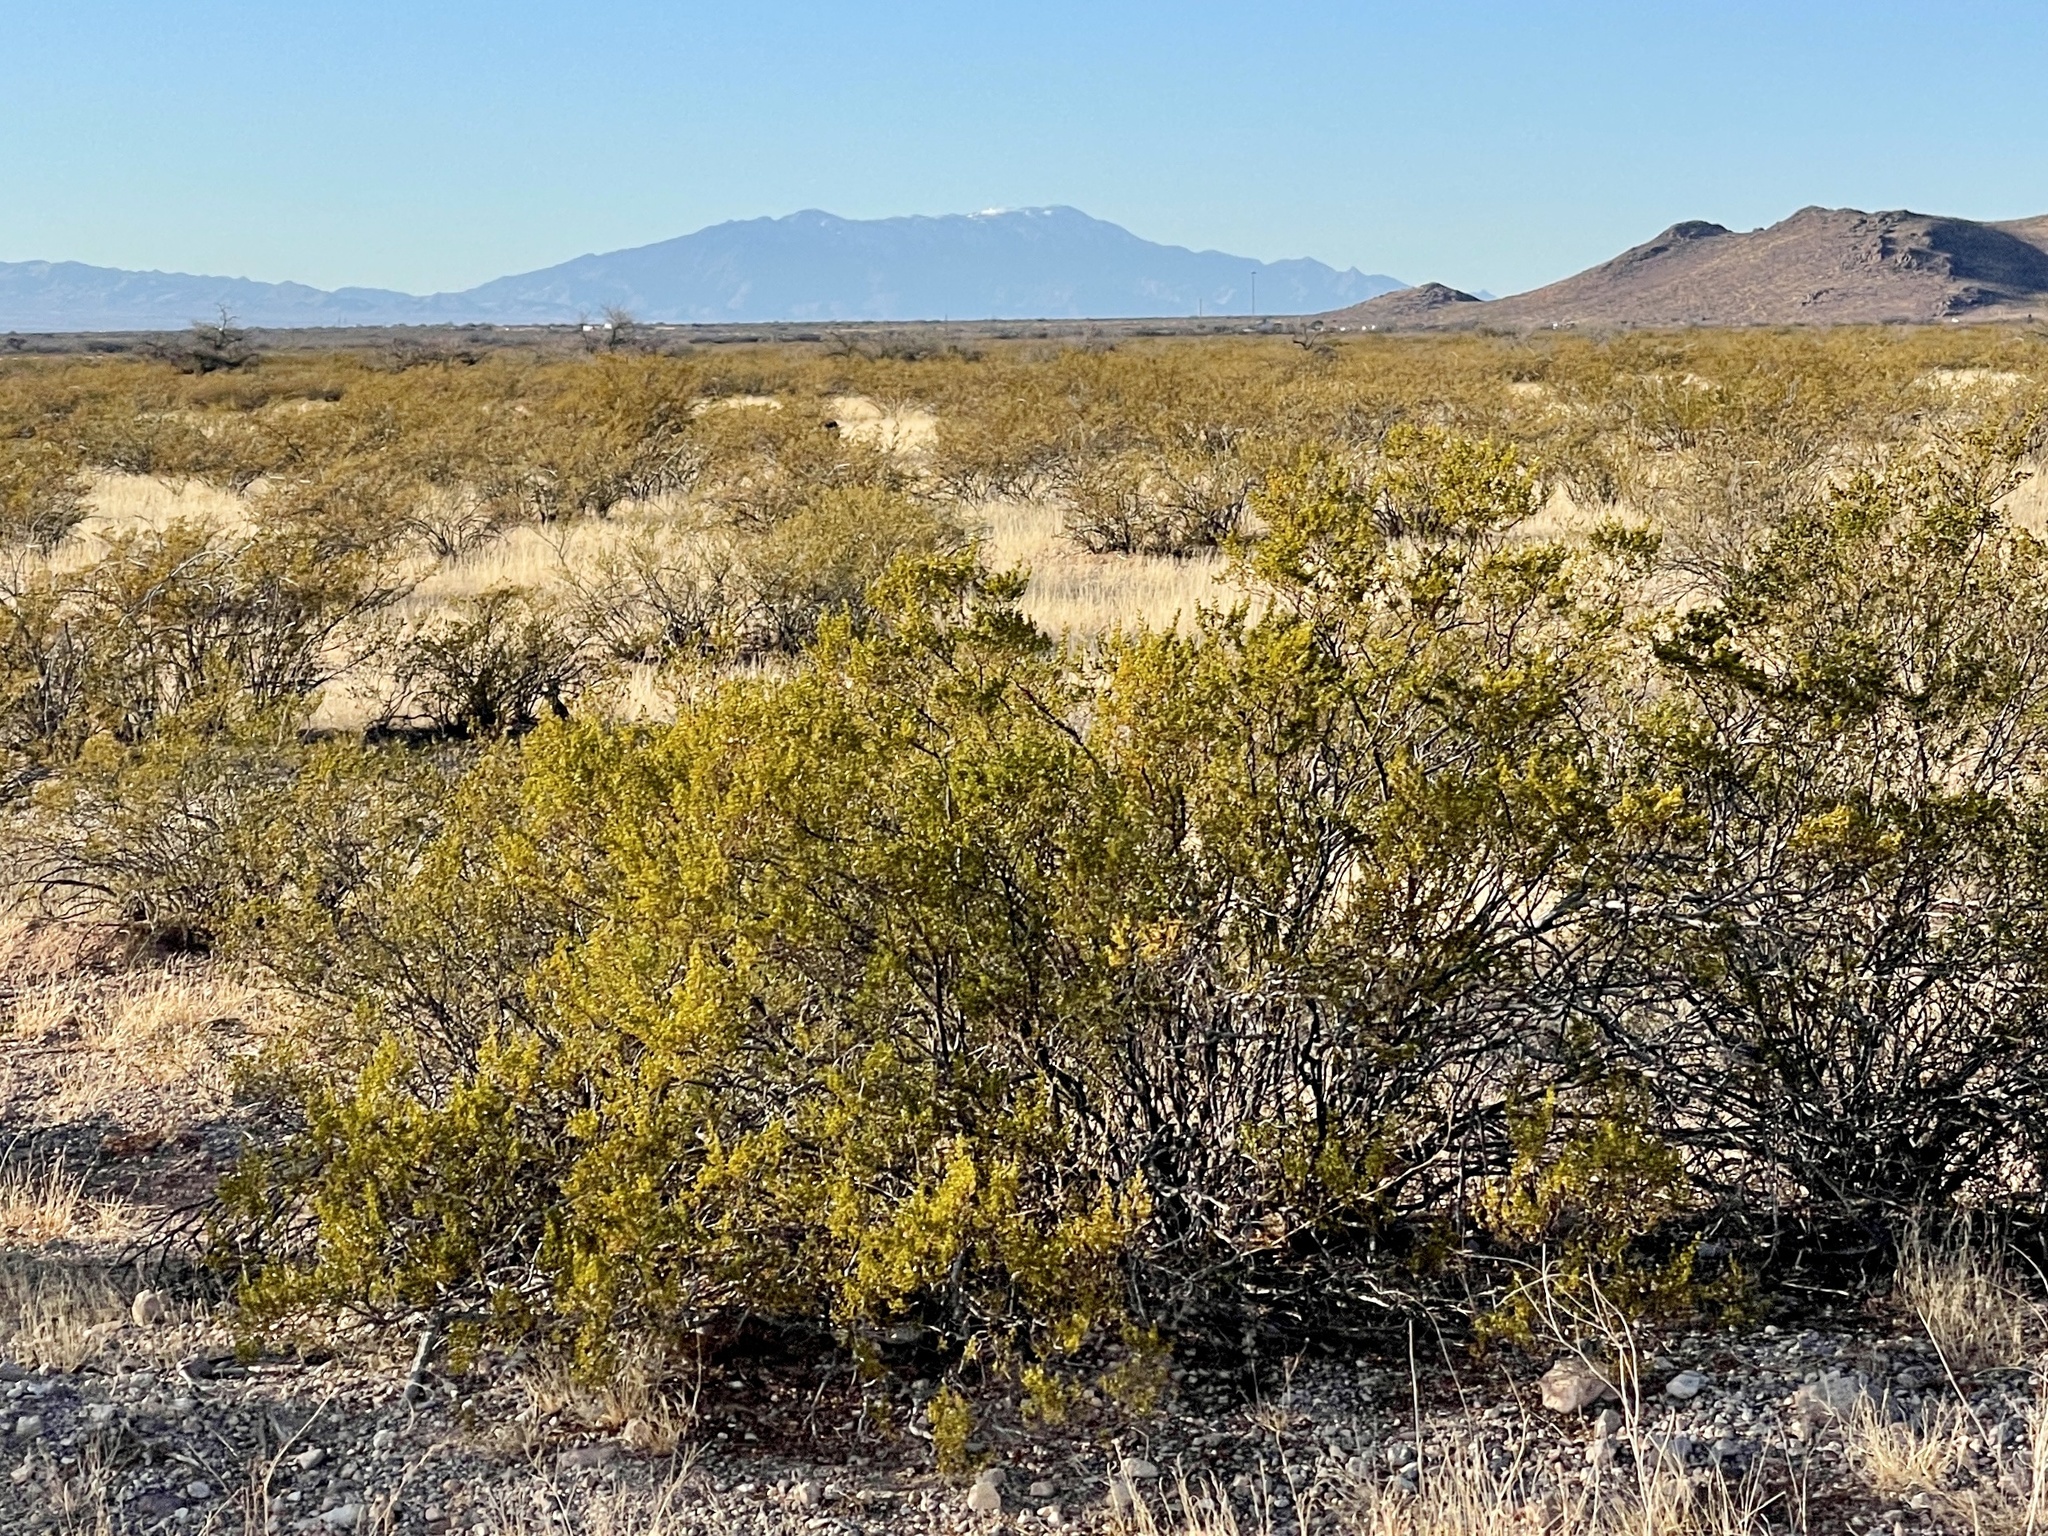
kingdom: Plantae
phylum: Tracheophyta
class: Magnoliopsida
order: Zygophyllales
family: Zygophyllaceae
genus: Larrea
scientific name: Larrea tridentata
